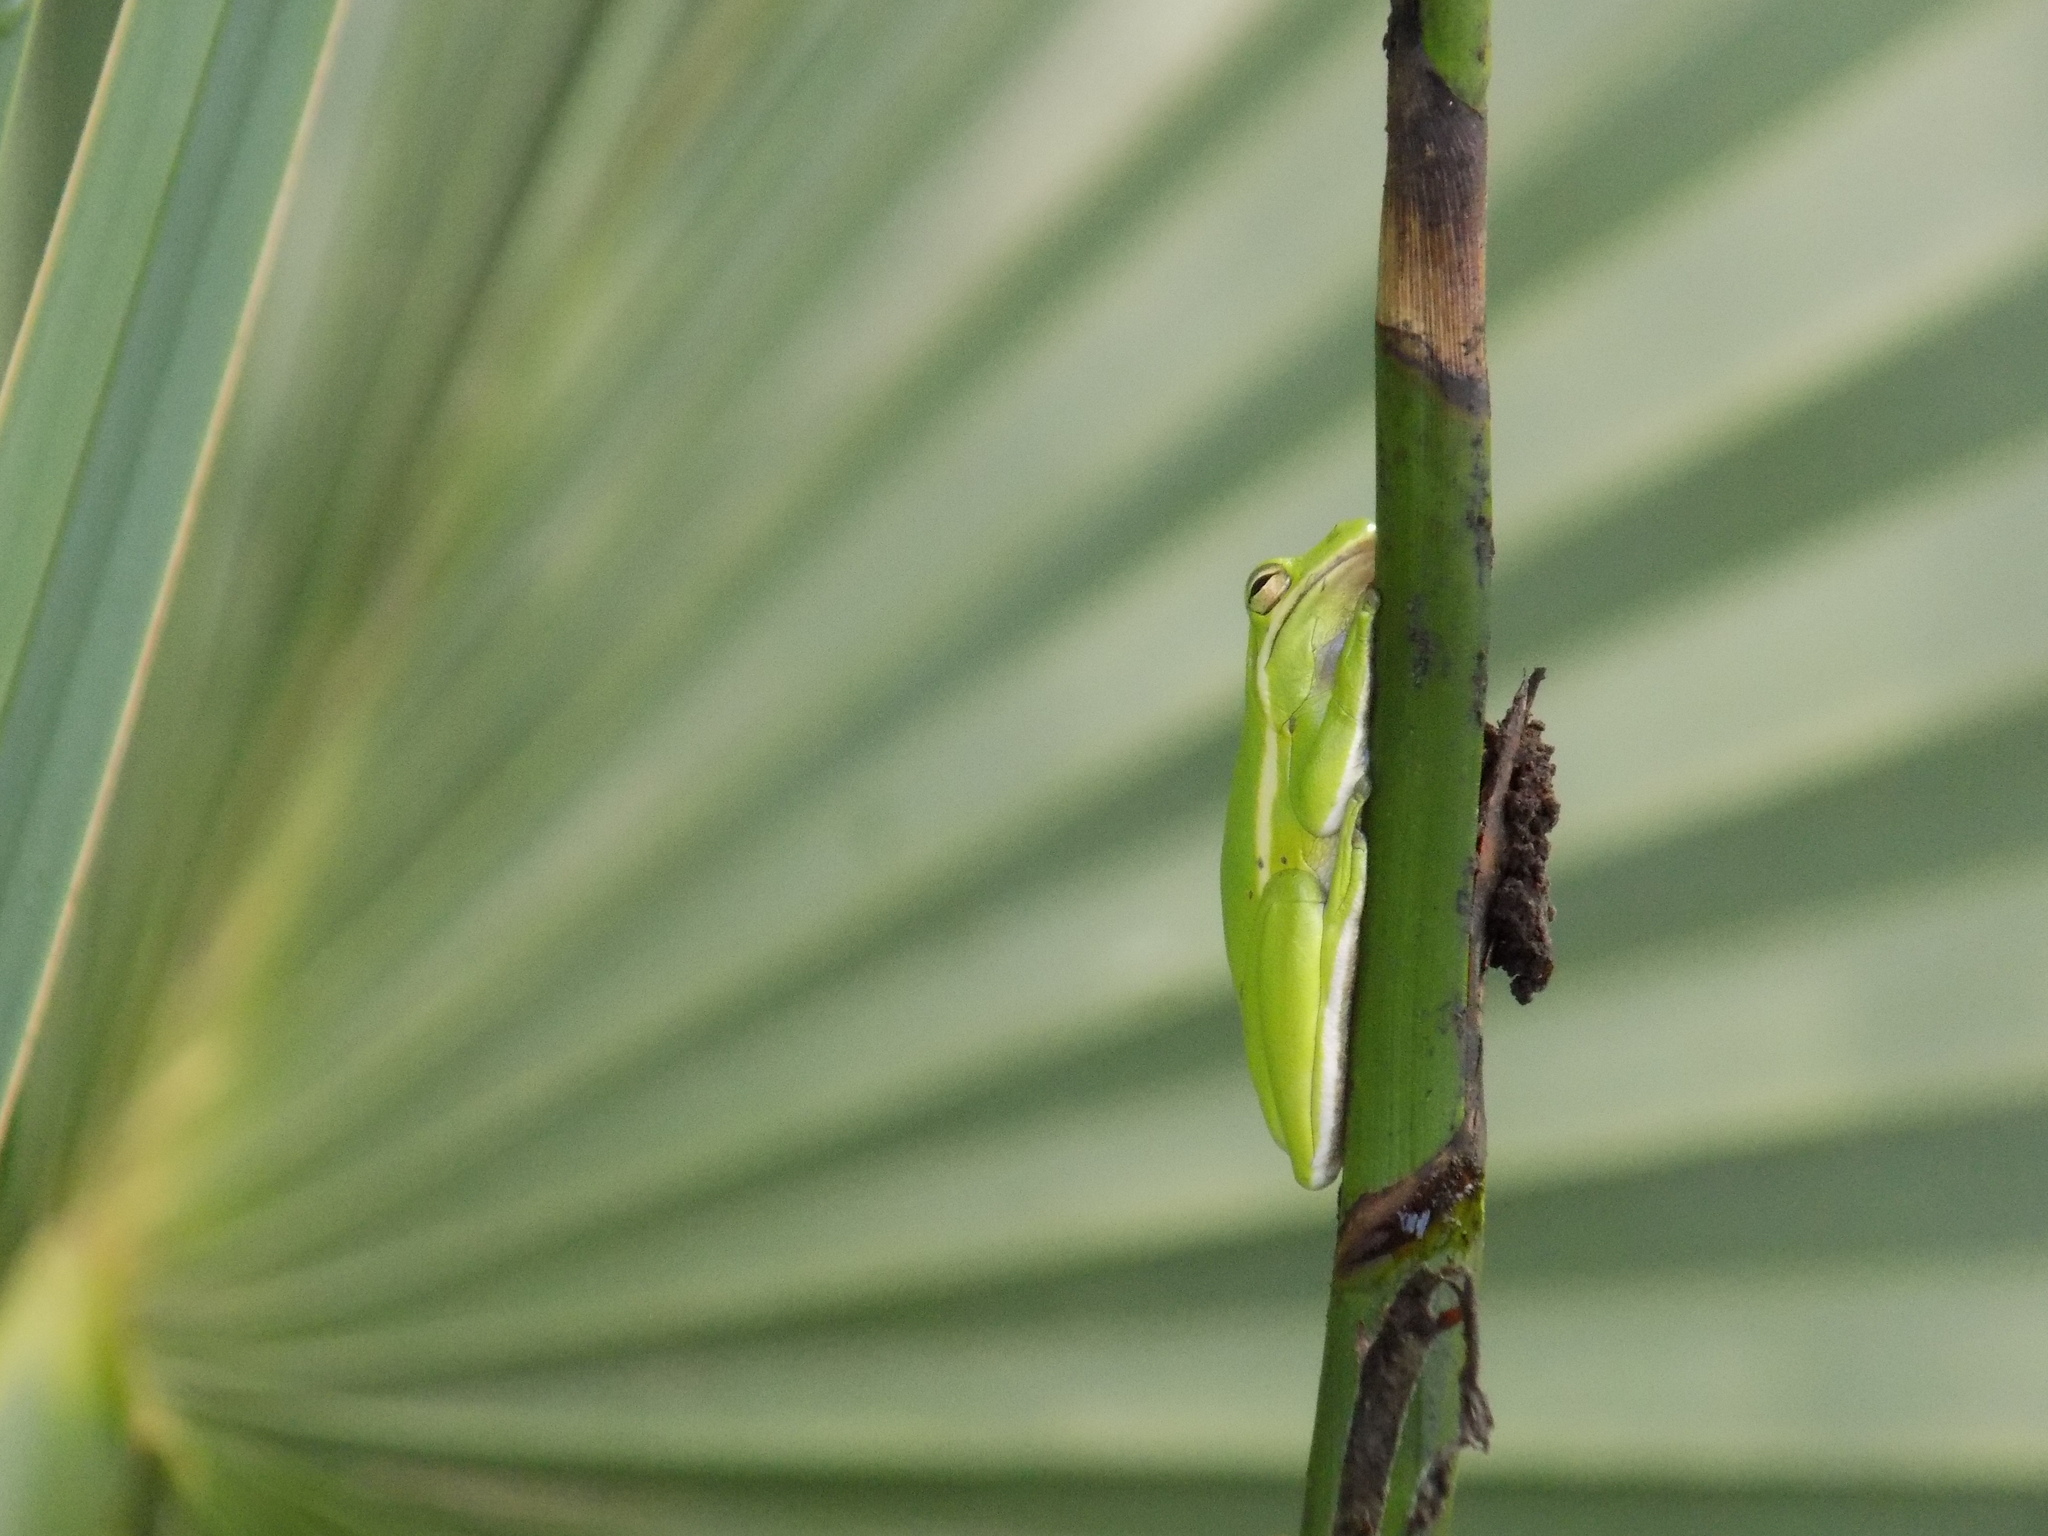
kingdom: Animalia
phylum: Chordata
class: Amphibia
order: Anura
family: Hylidae
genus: Dryophytes
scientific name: Dryophytes cinereus
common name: Green treefrog
